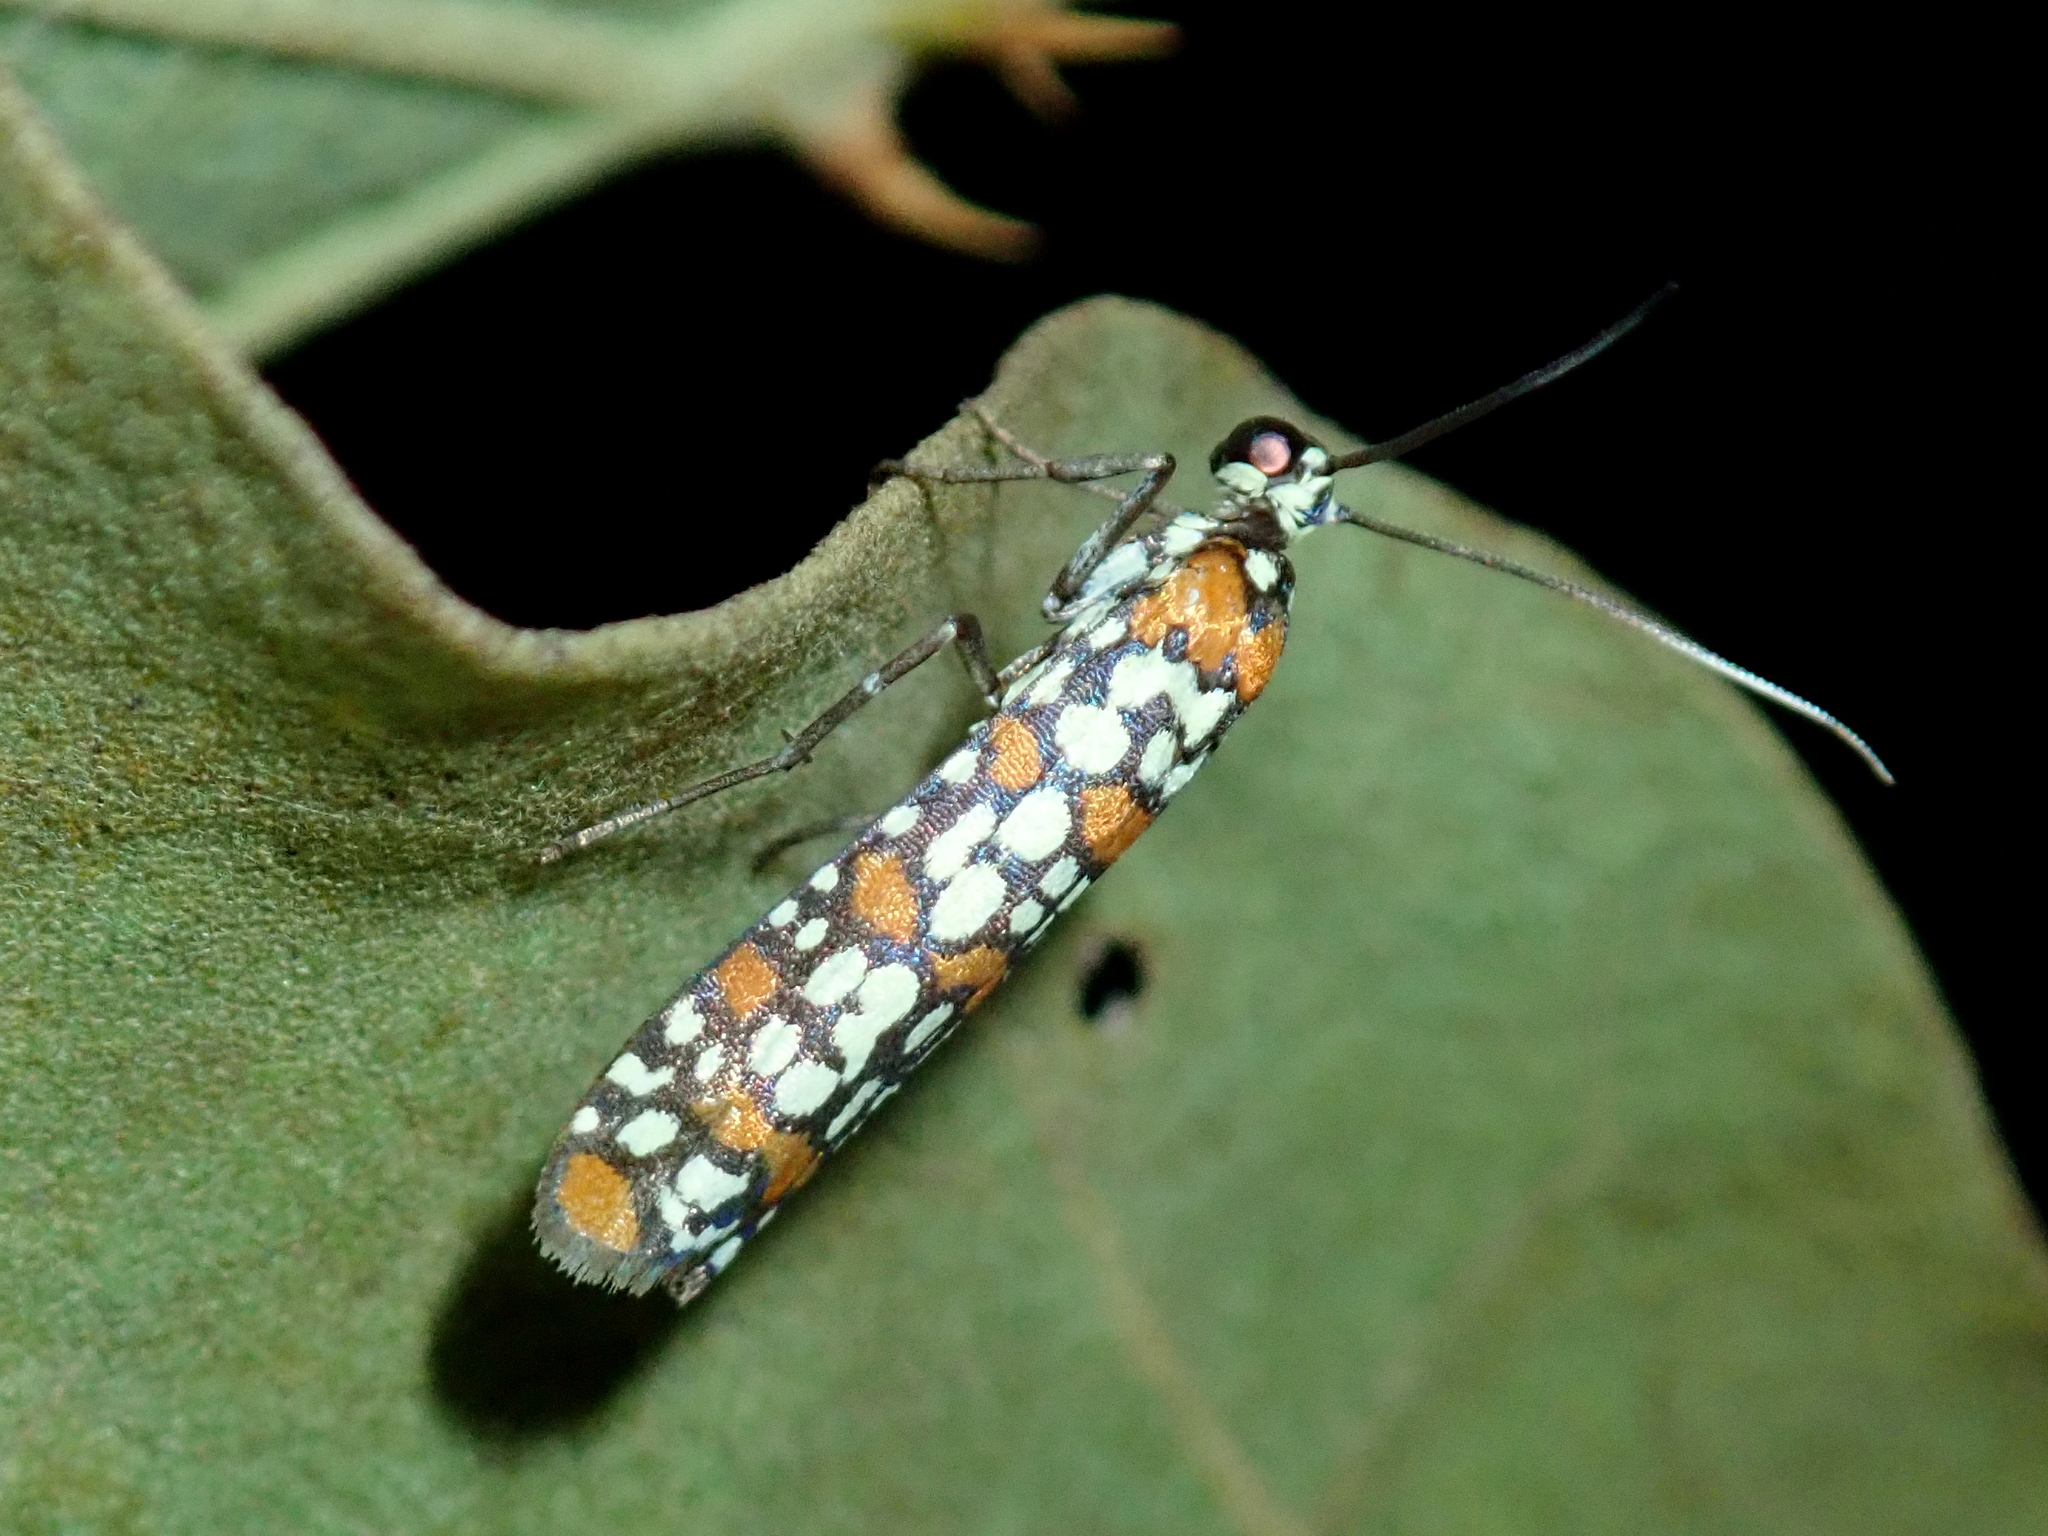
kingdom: Animalia
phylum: Arthropoda
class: Insecta
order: Lepidoptera
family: Attevidae
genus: Atteva
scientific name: Atteva punctella
